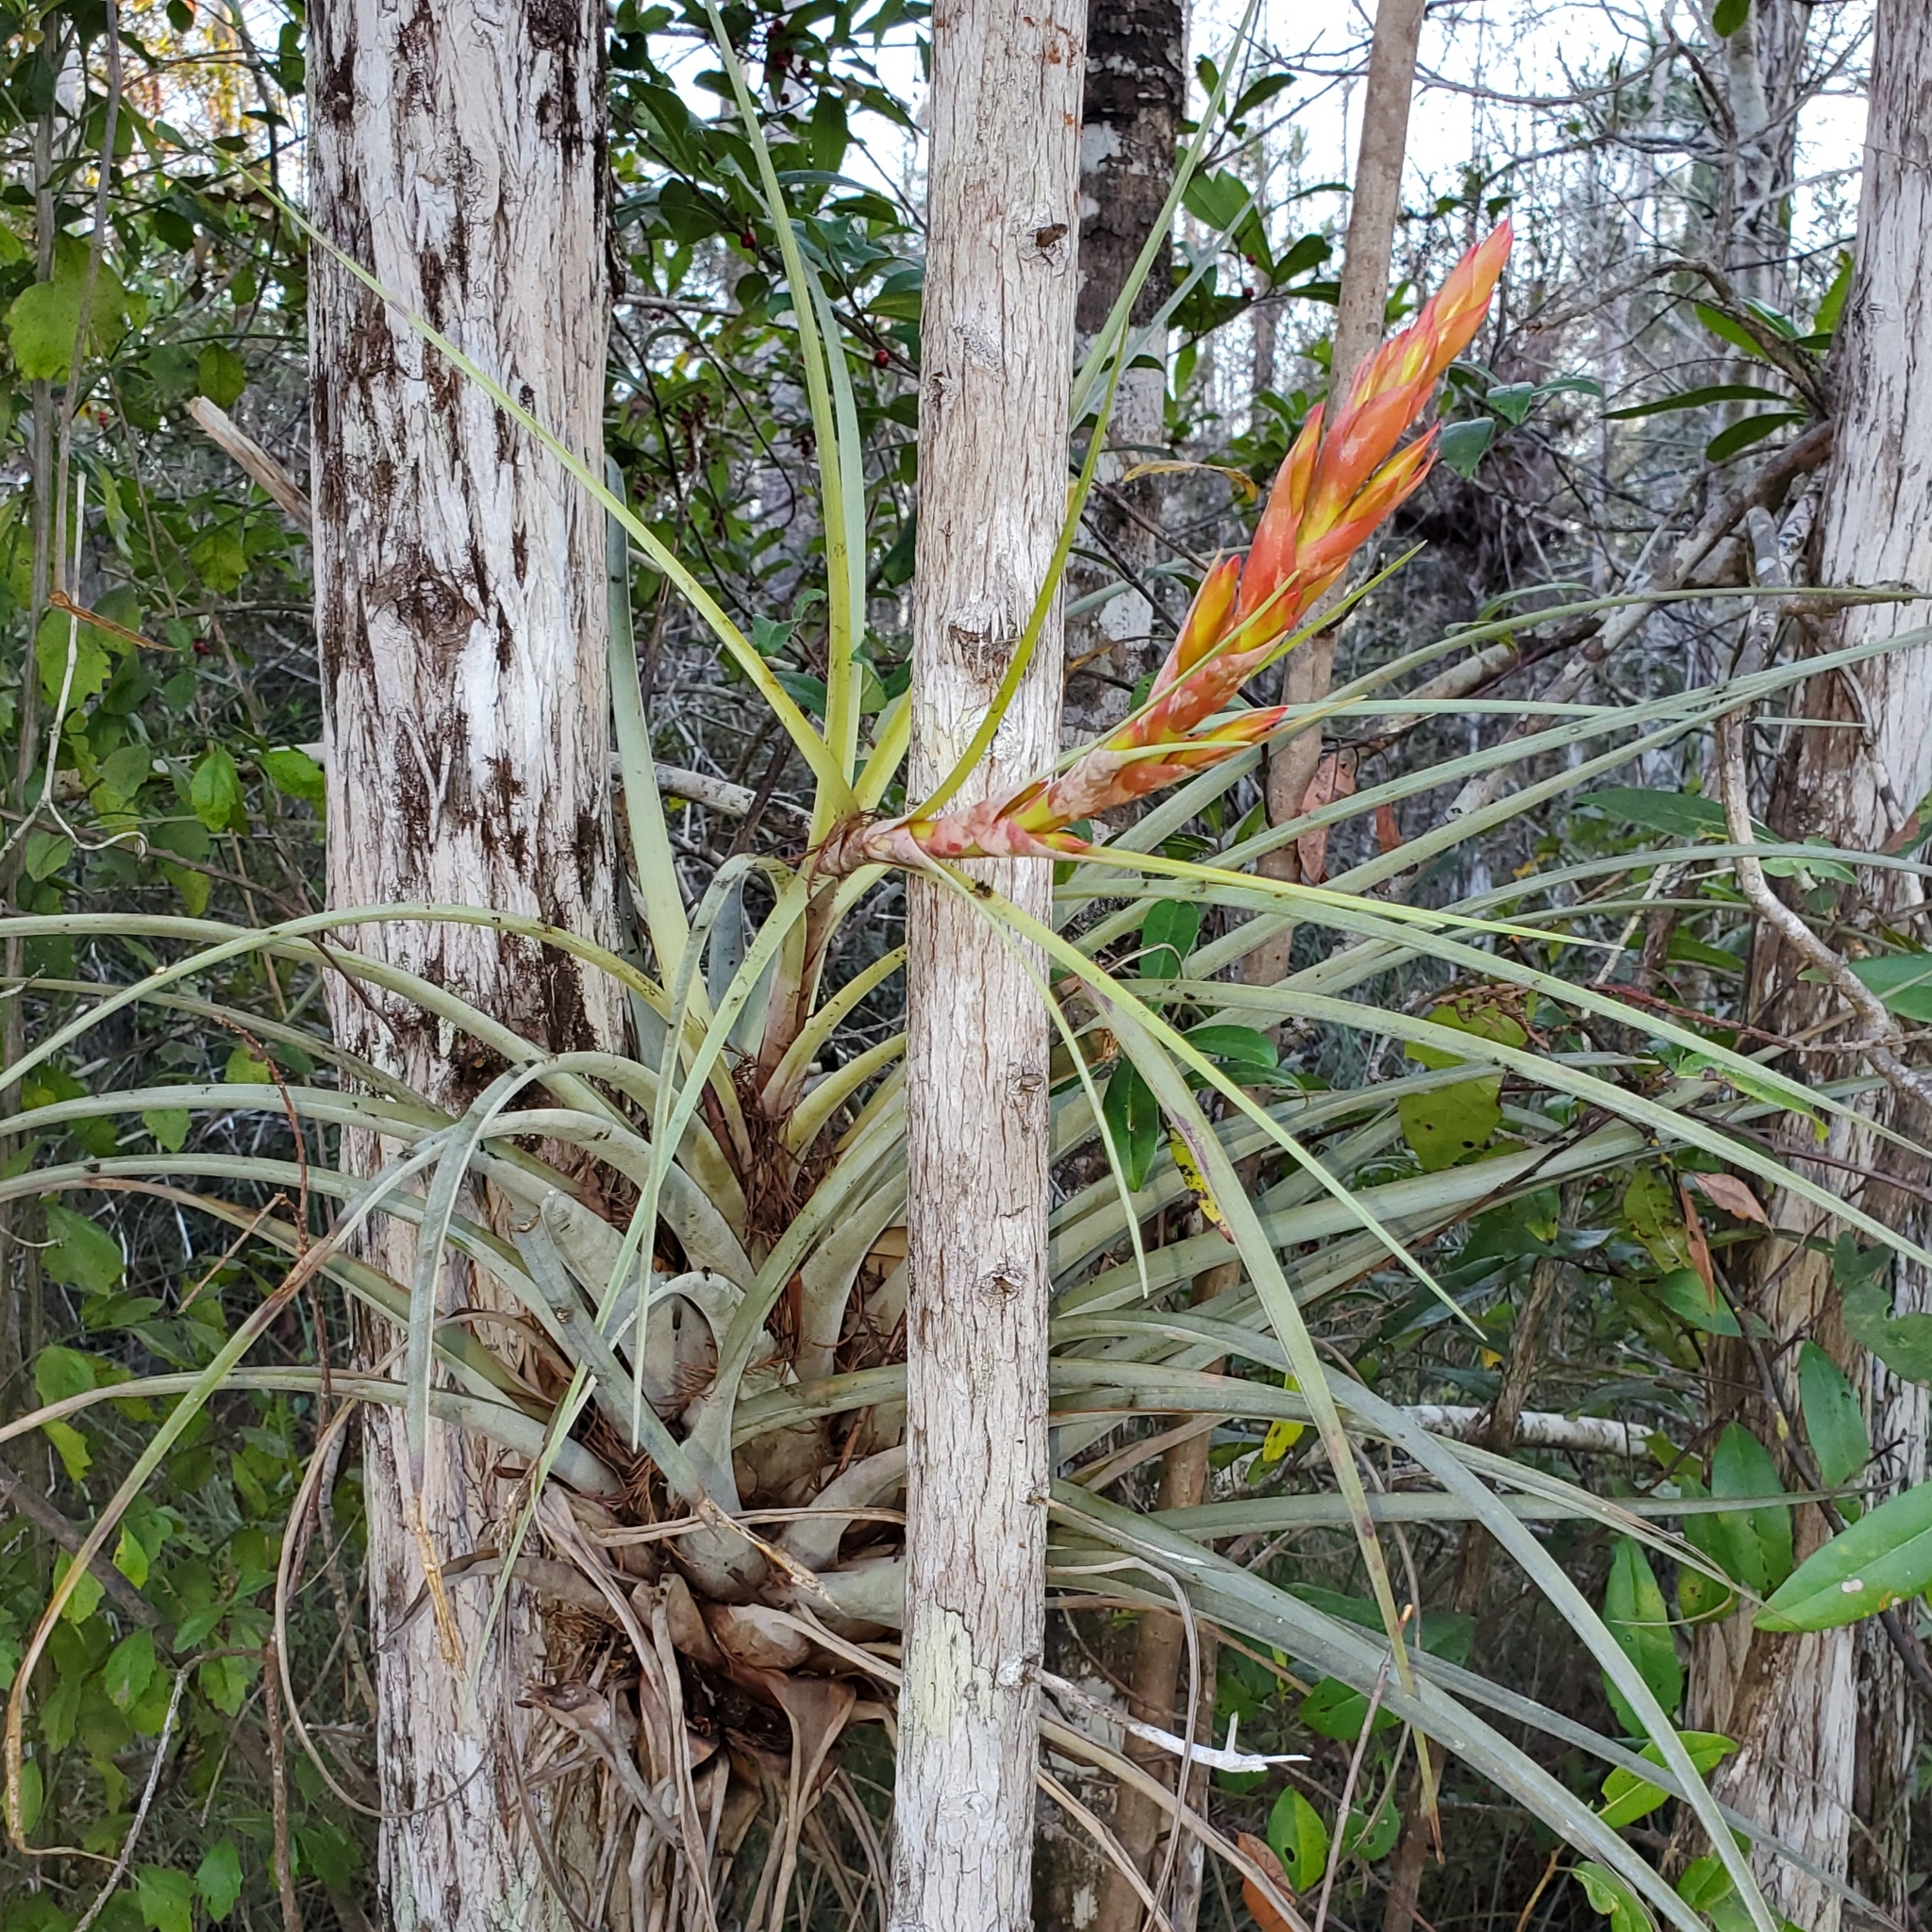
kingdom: Plantae
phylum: Tracheophyta
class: Liliopsida
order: Poales
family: Bromeliaceae
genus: Tillandsia
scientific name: Tillandsia fasciculata
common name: Giant airplant
